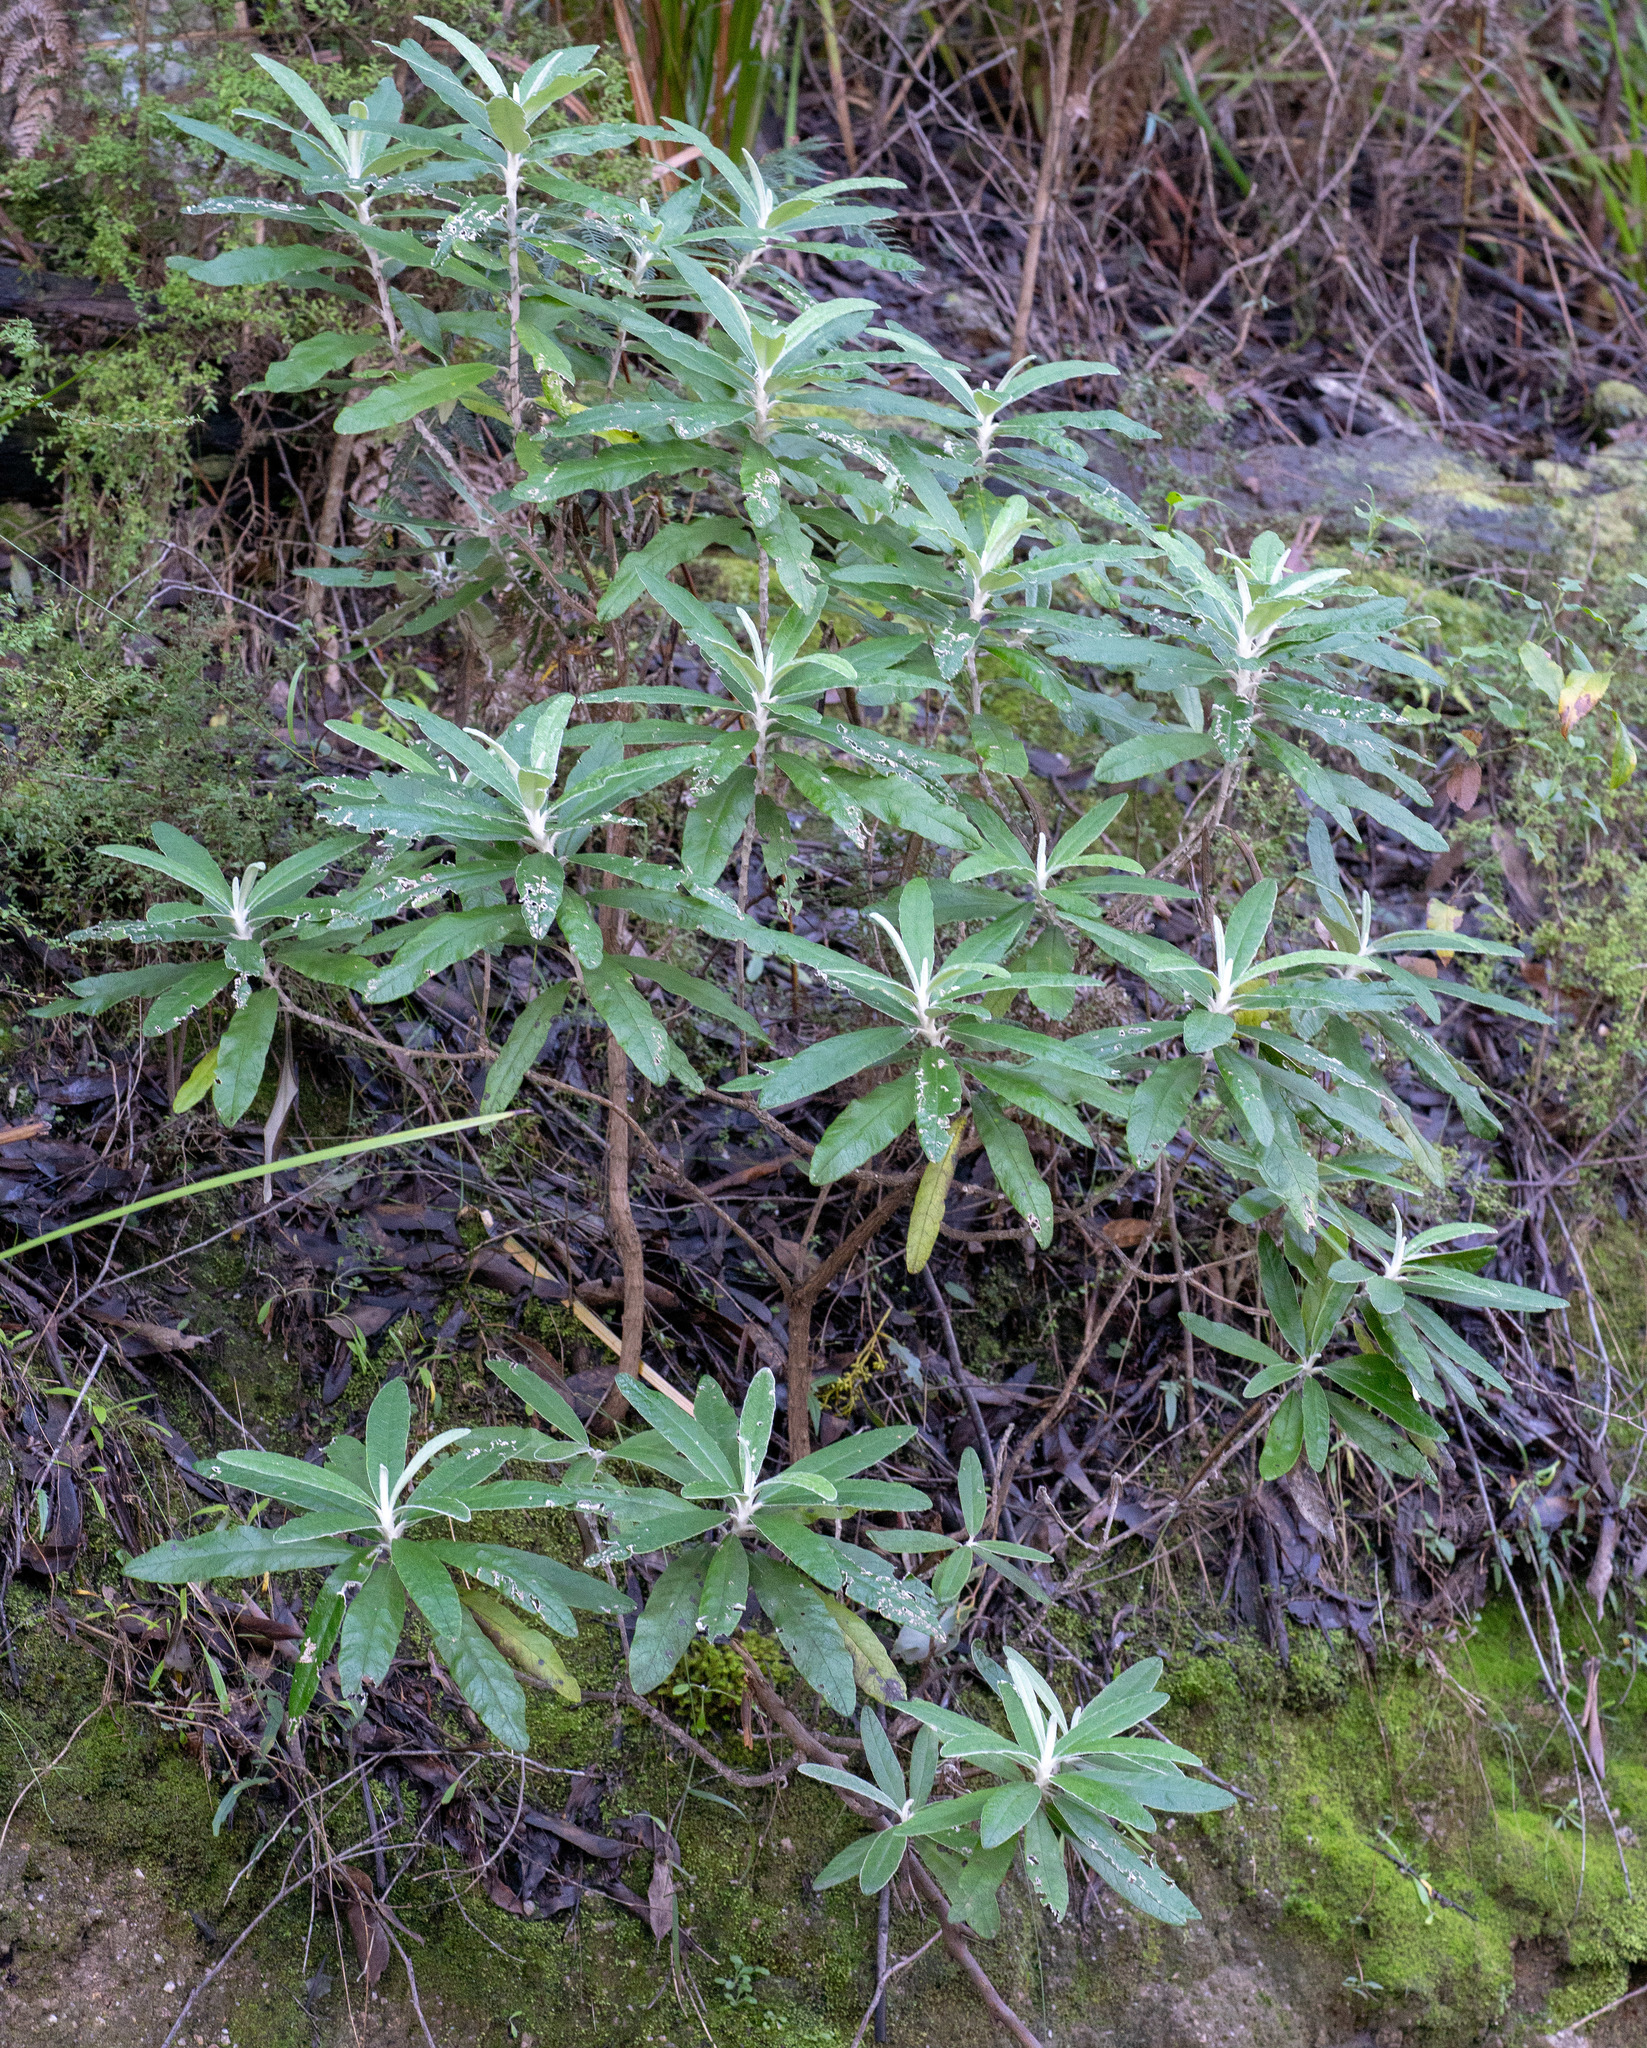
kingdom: Plantae
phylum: Tracheophyta
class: Magnoliopsida
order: Asterales
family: Asteraceae
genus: Bedfordia
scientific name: Bedfordia arborescens
